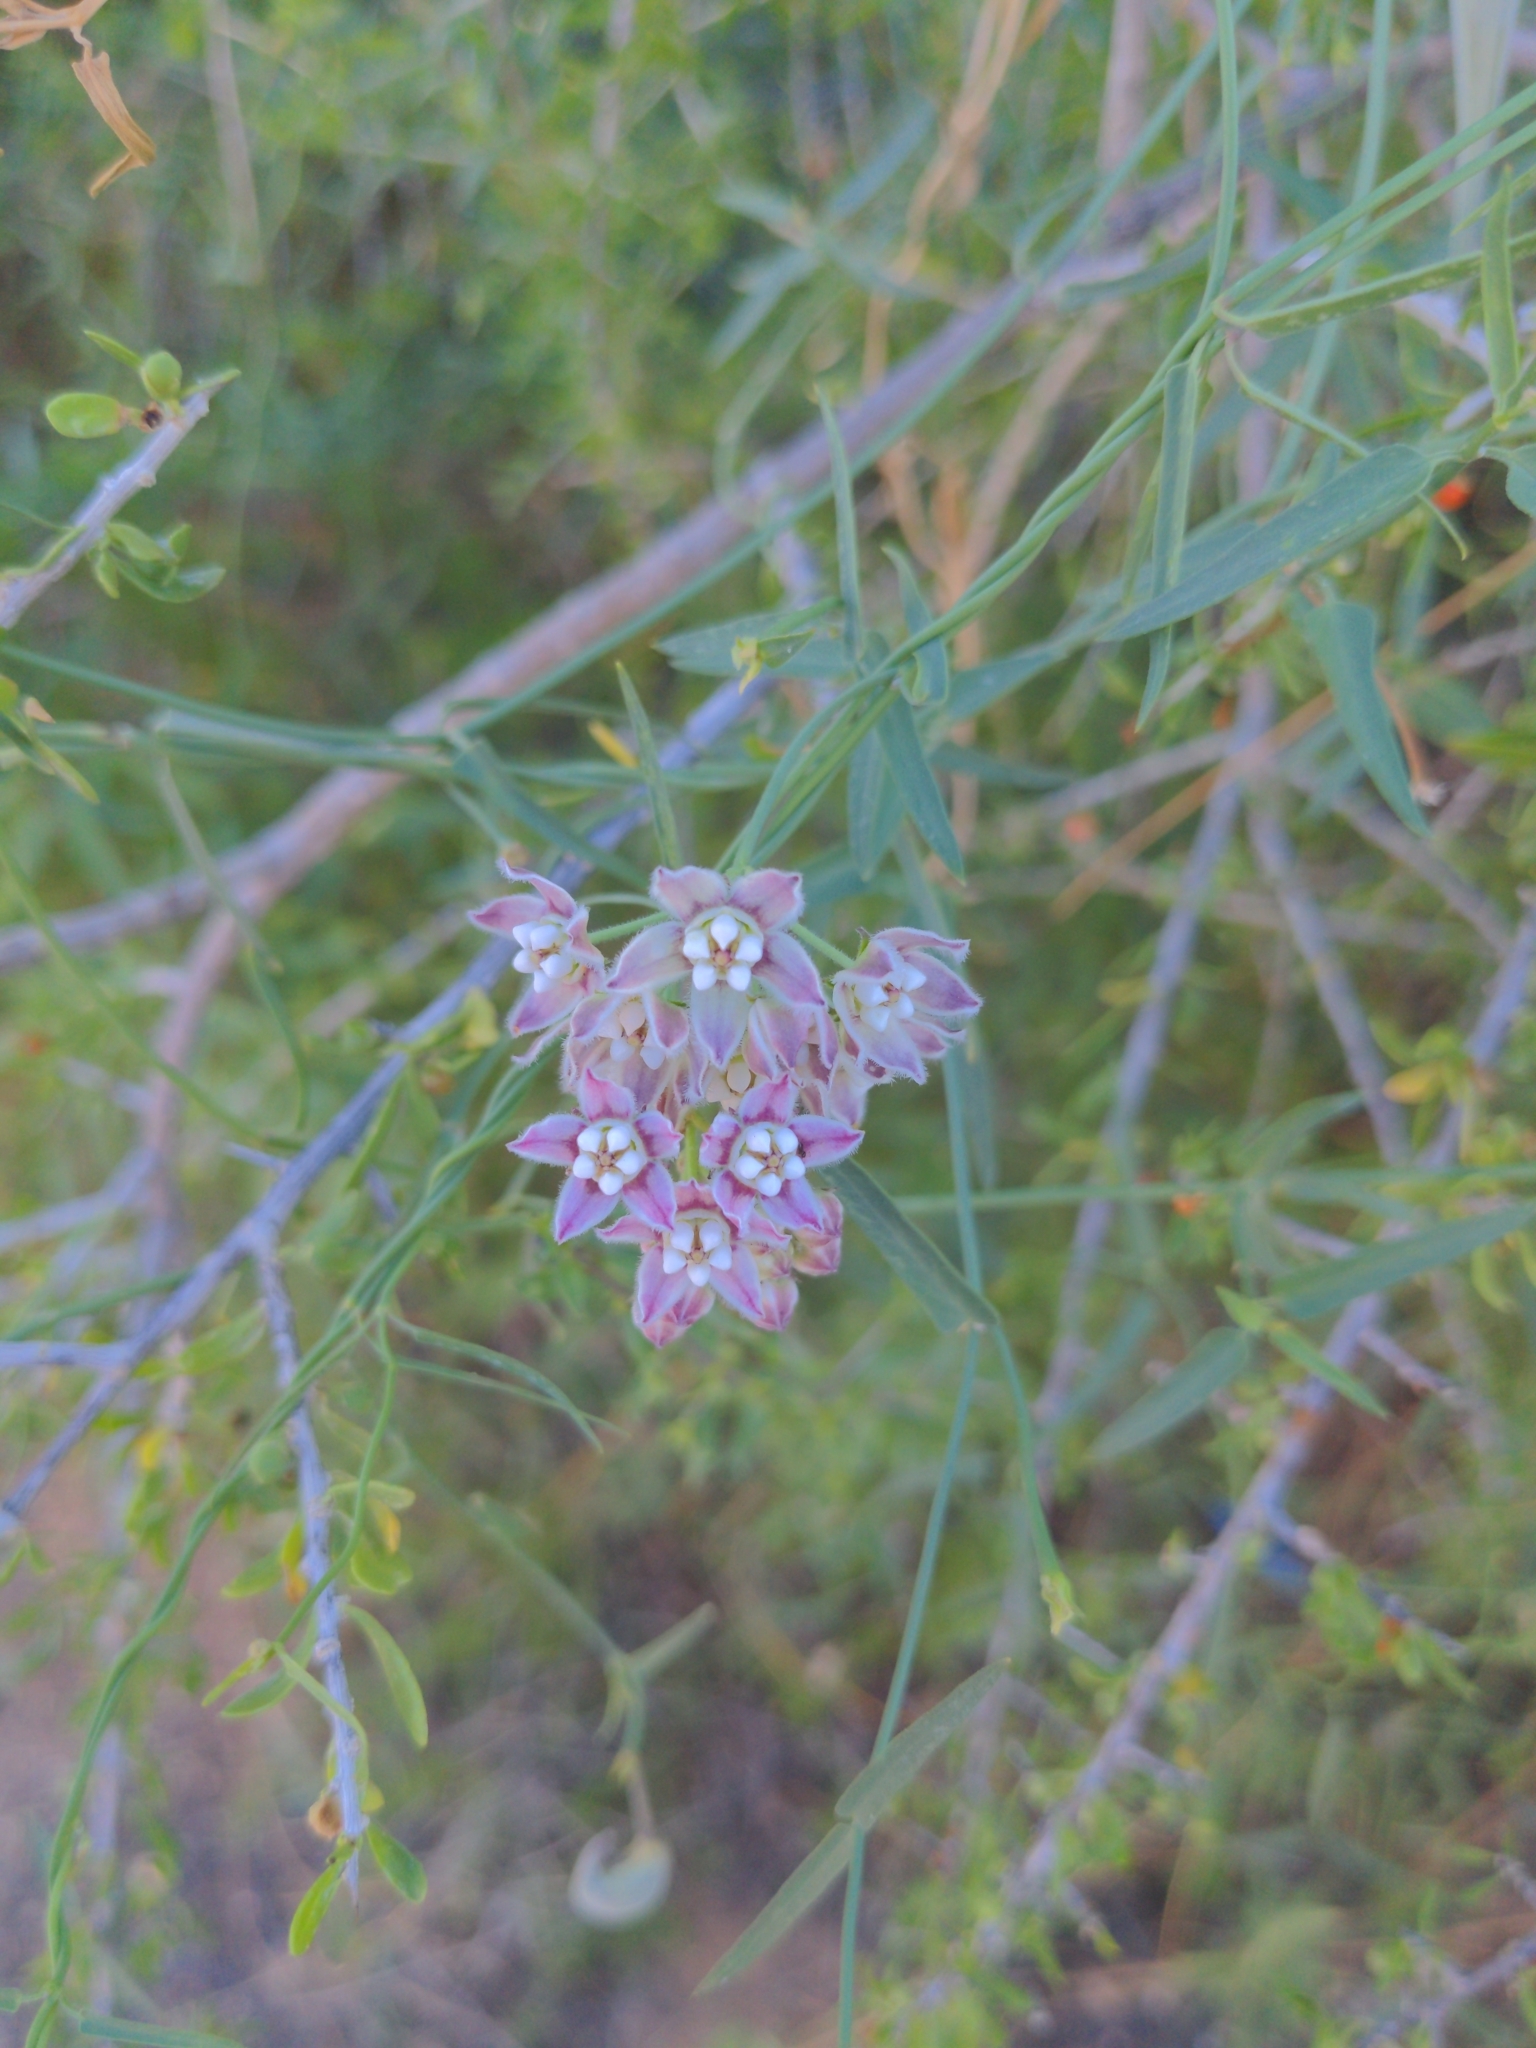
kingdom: Plantae
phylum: Tracheophyta
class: Magnoliopsida
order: Gentianales
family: Apocynaceae
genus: Funastrum
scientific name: Funastrum heterophyllum
